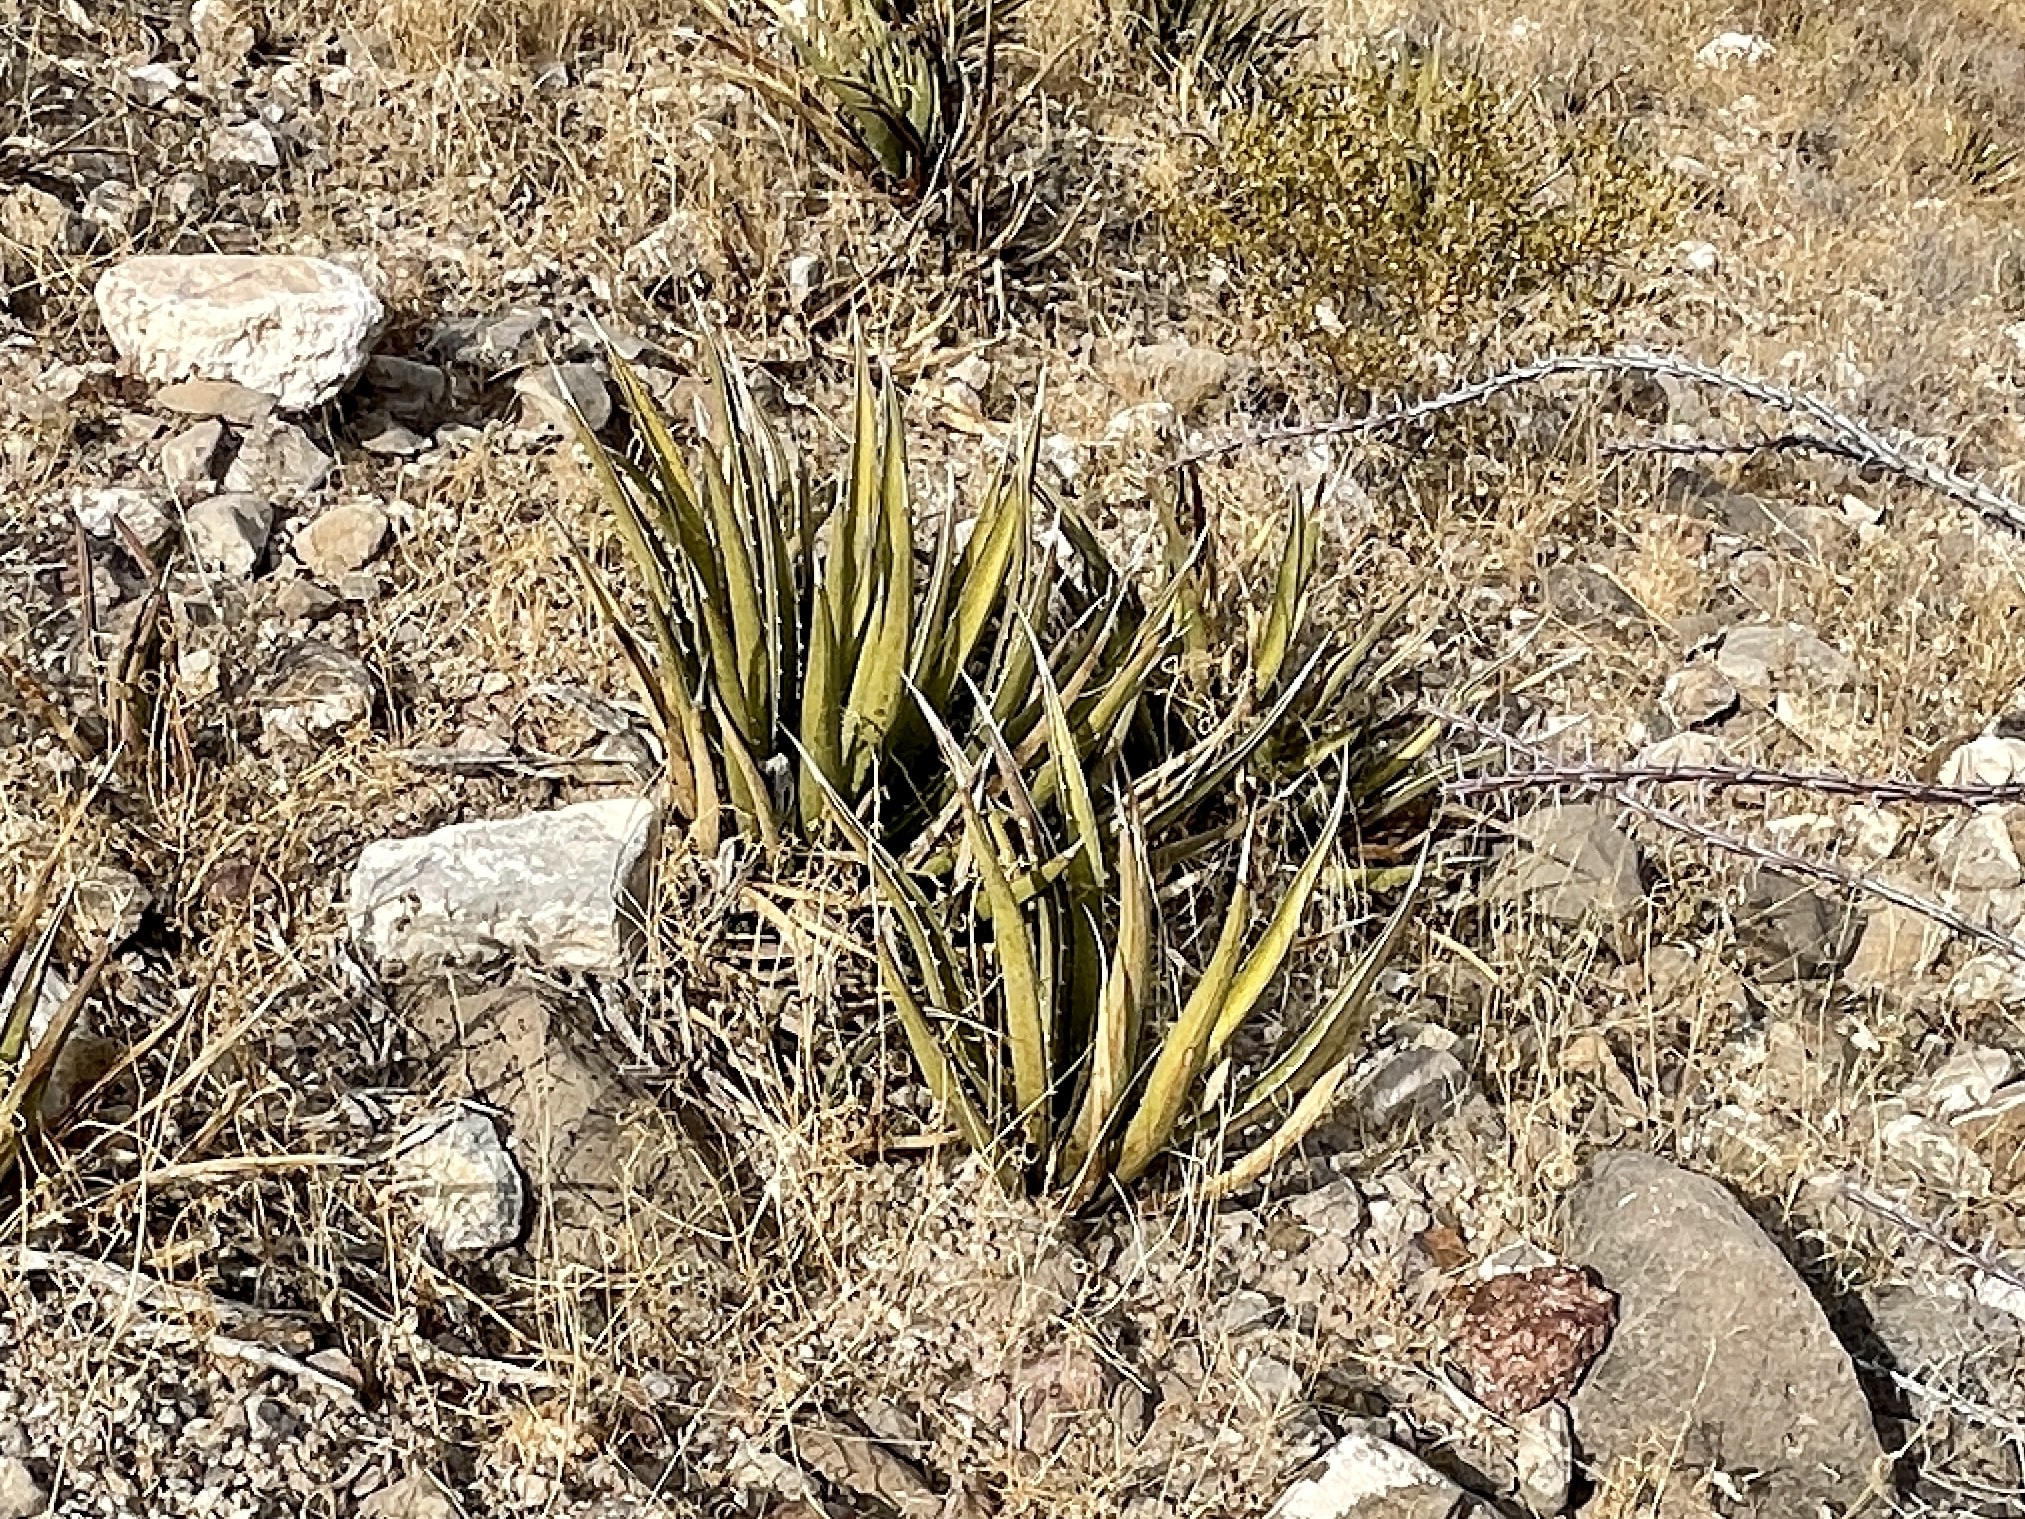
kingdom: Plantae
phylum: Tracheophyta
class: Liliopsida
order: Asparagales
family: Asparagaceae
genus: Agave
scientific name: Agave lechuguilla
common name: Lecheguilla agave
